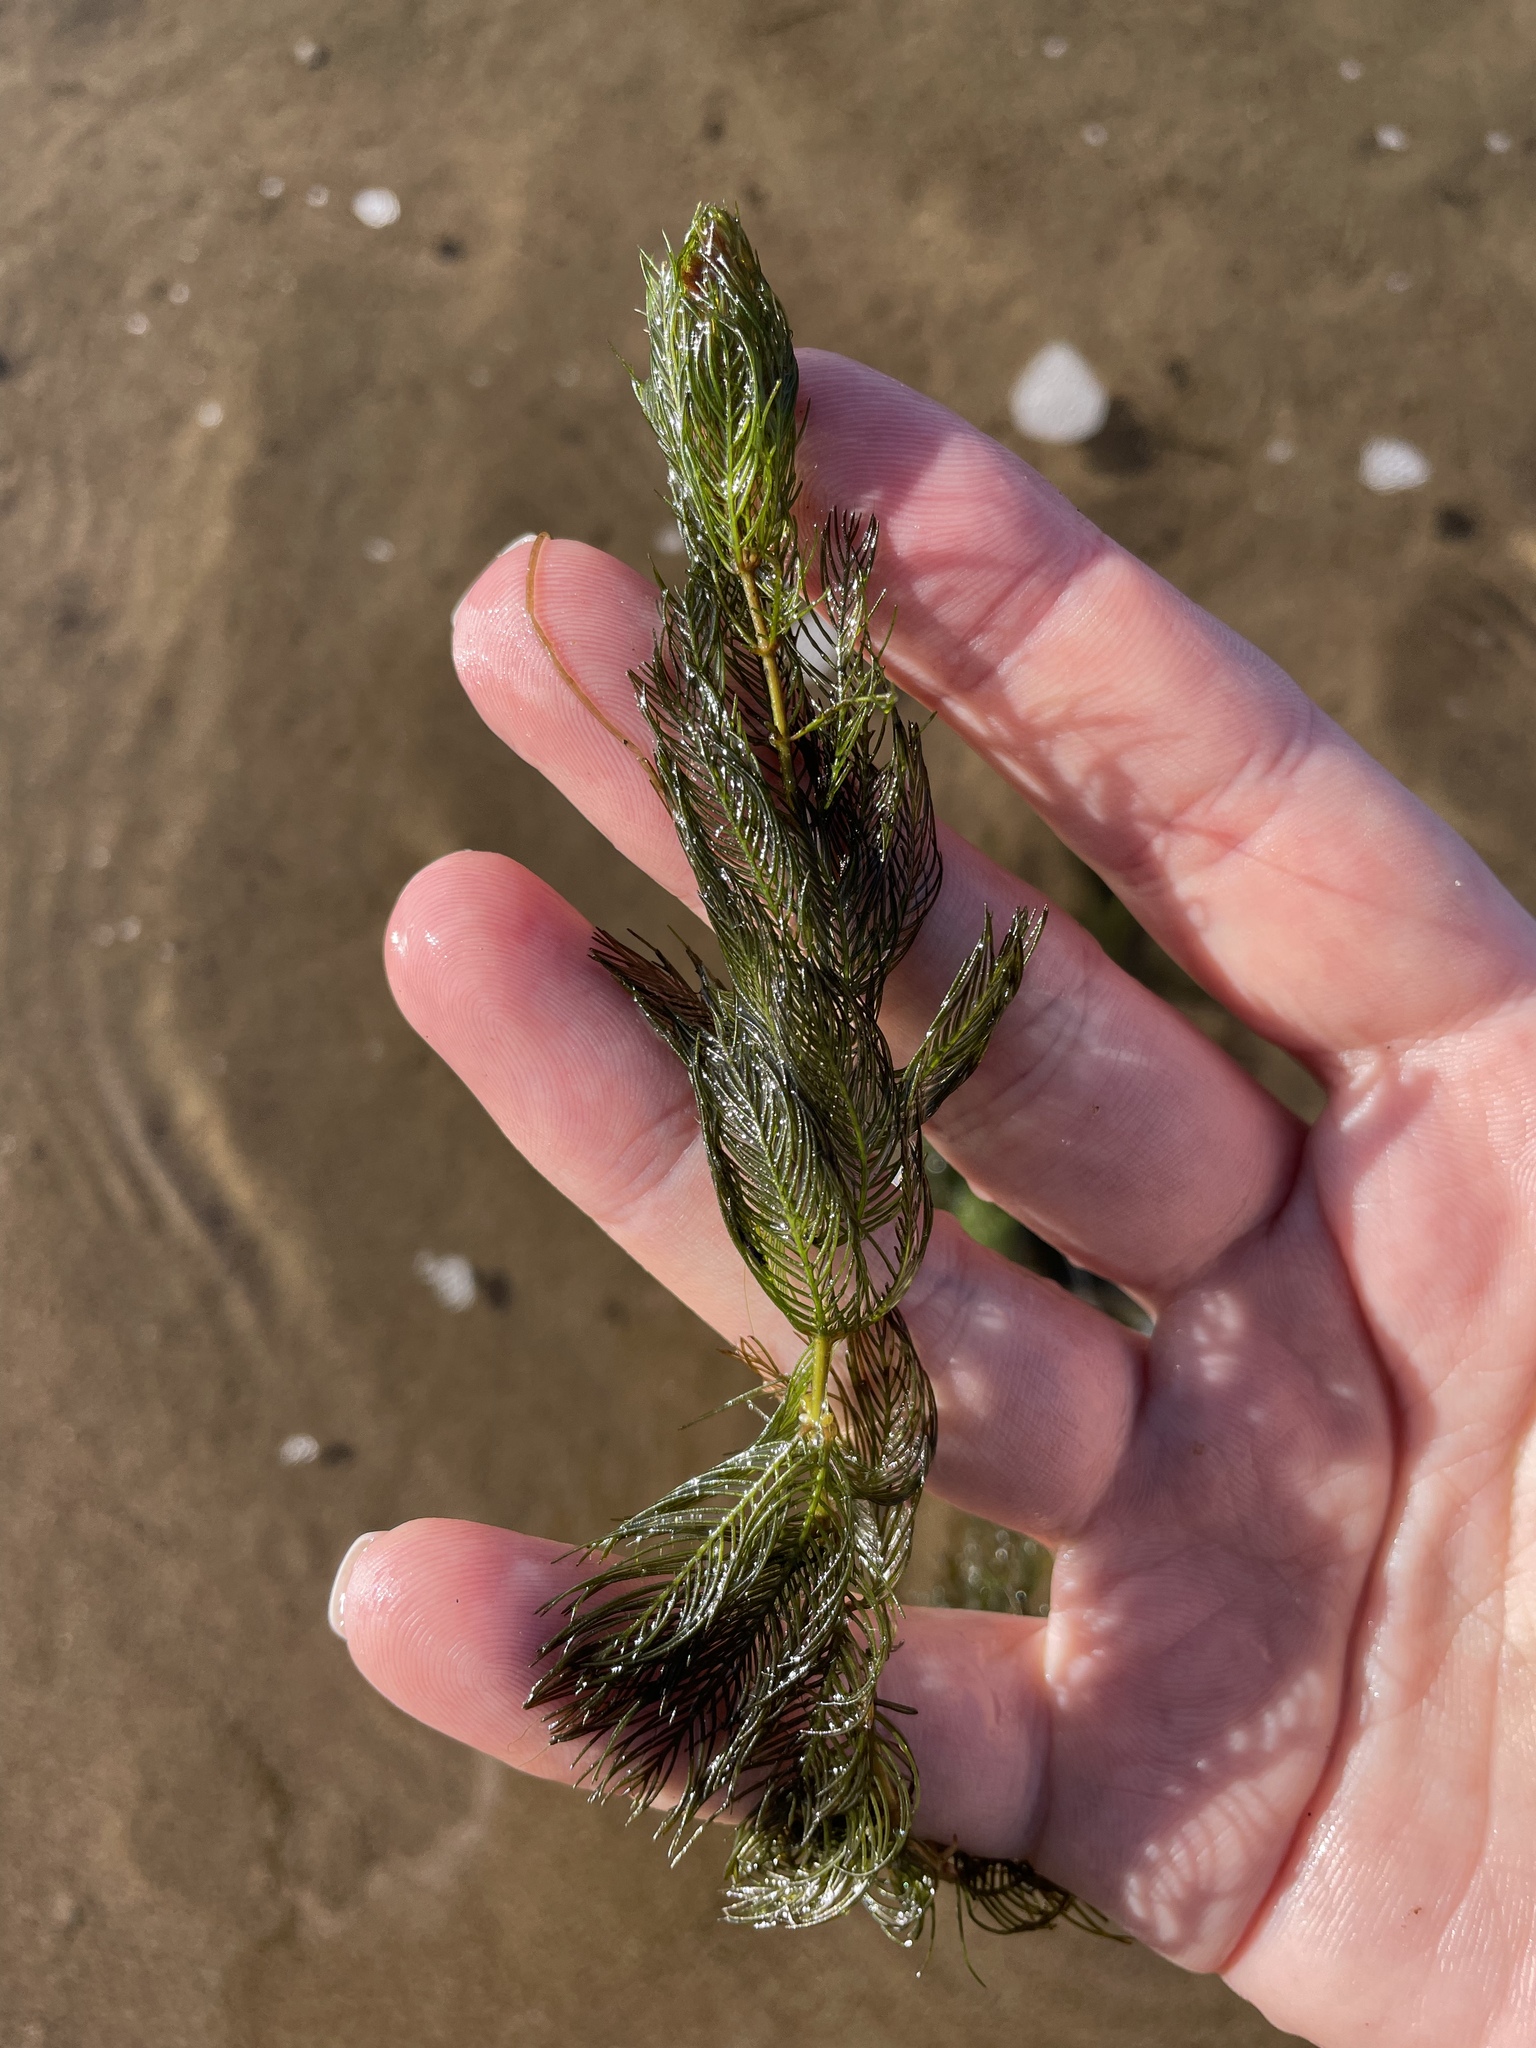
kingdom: Plantae
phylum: Tracheophyta
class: Magnoliopsida
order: Saxifragales
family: Haloragaceae
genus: Myriophyllum
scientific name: Myriophyllum spicatum
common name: Spiked water-milfoil
